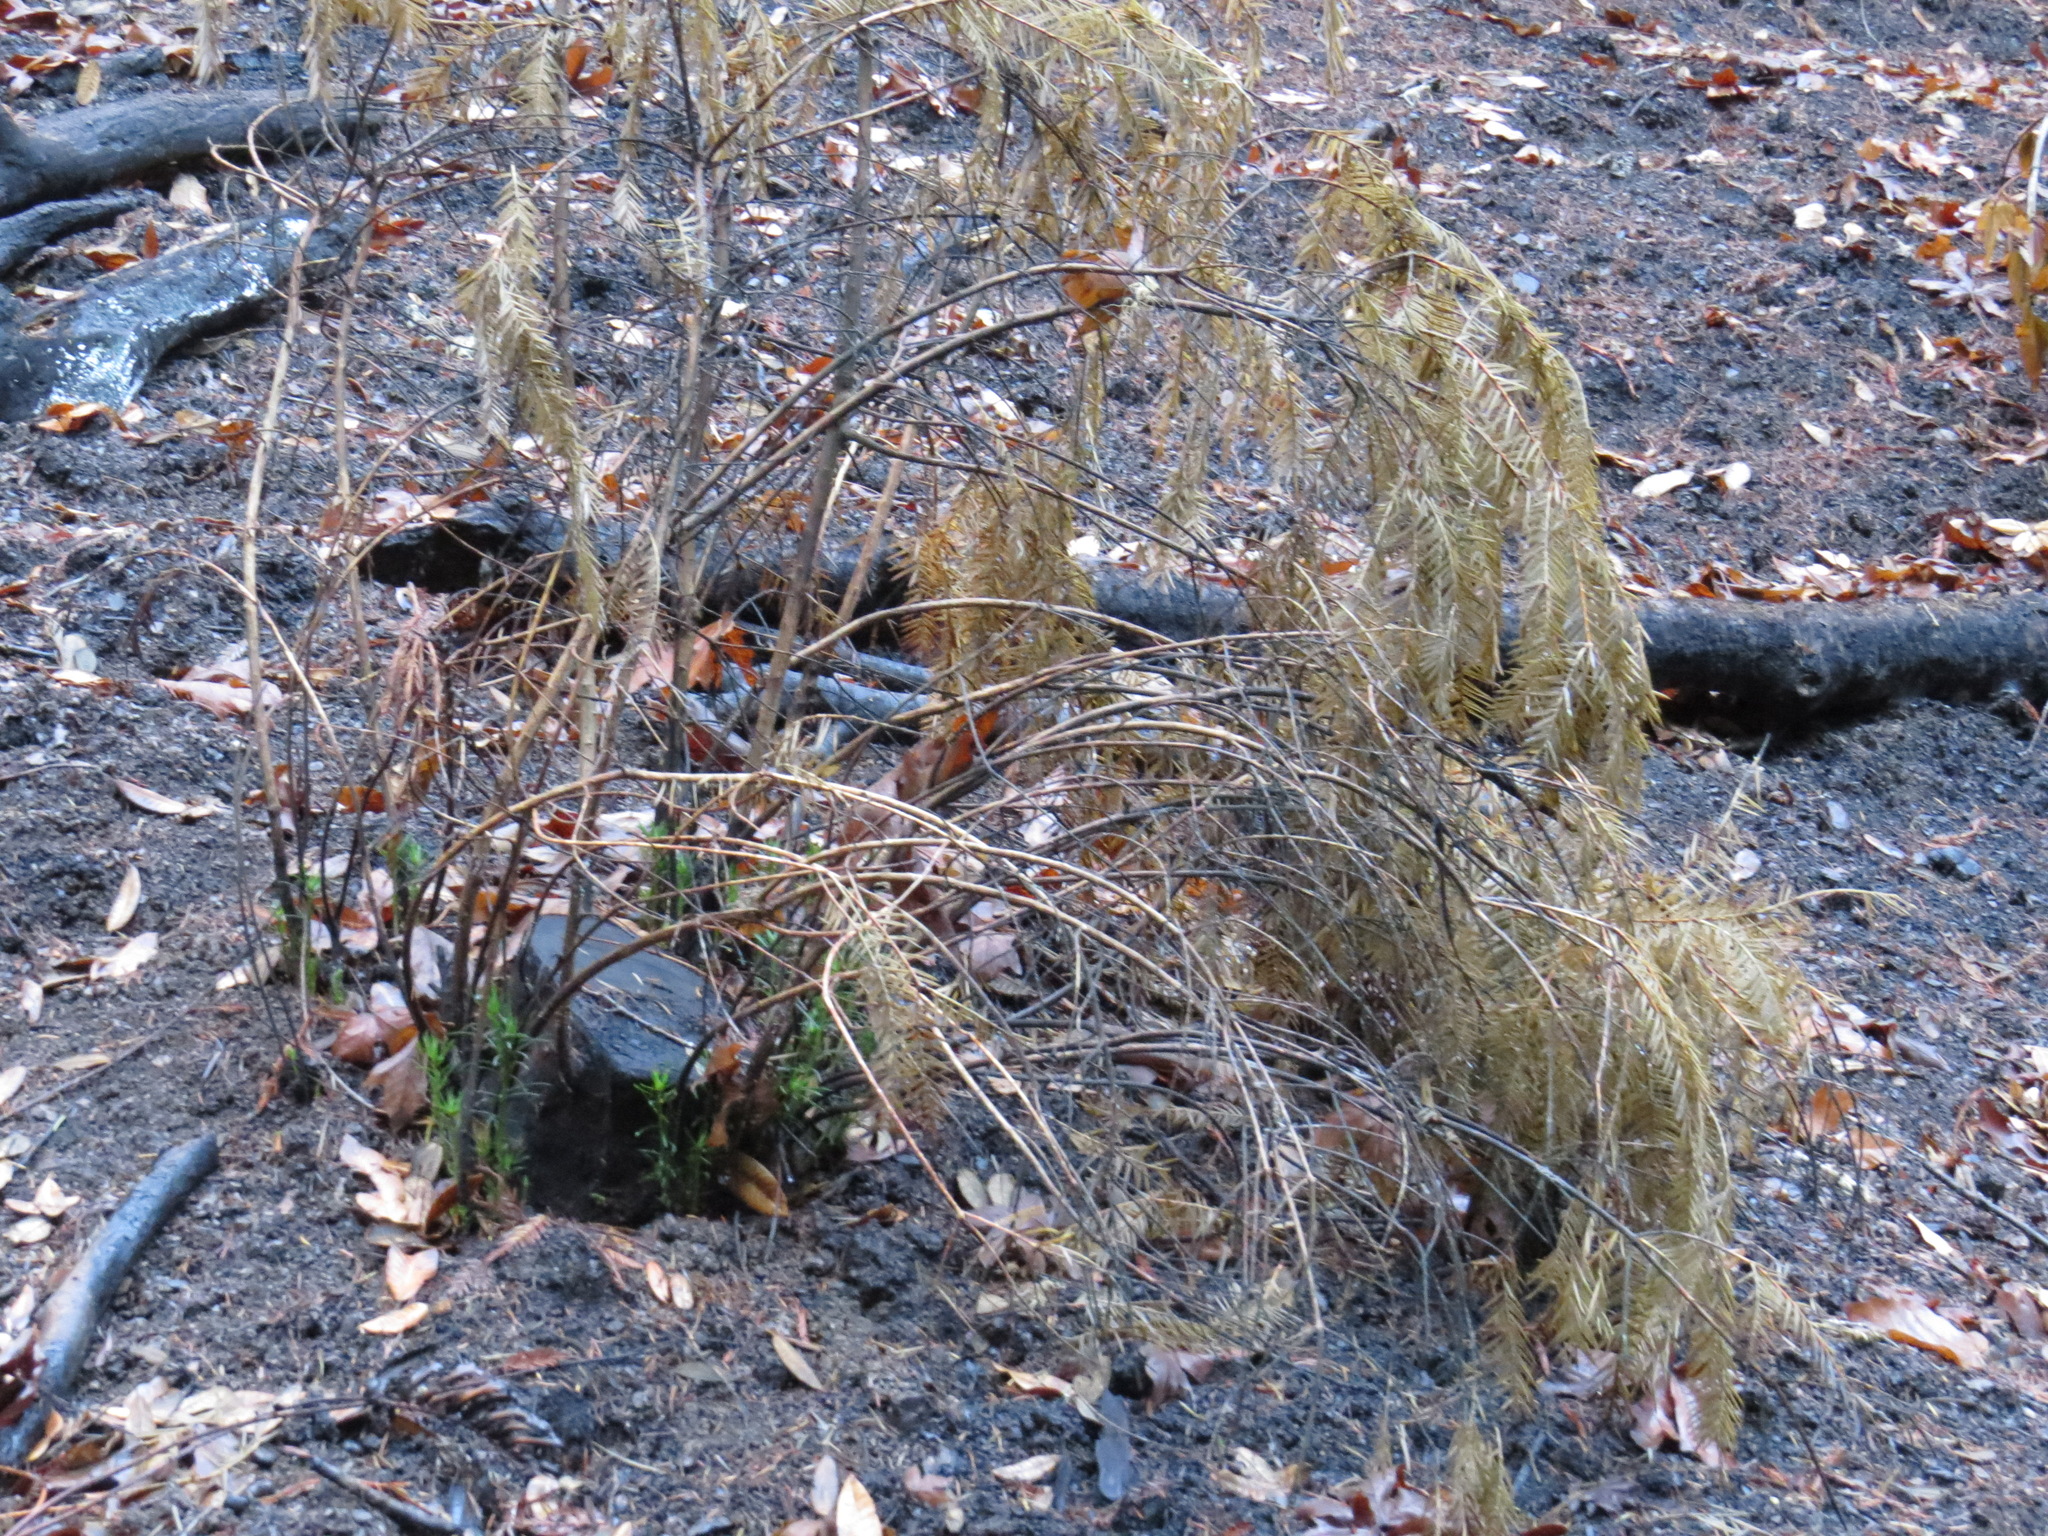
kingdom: Plantae
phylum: Tracheophyta
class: Pinopsida
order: Pinales
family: Taxaceae
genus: Torreya
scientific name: Torreya californica
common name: California torreya
